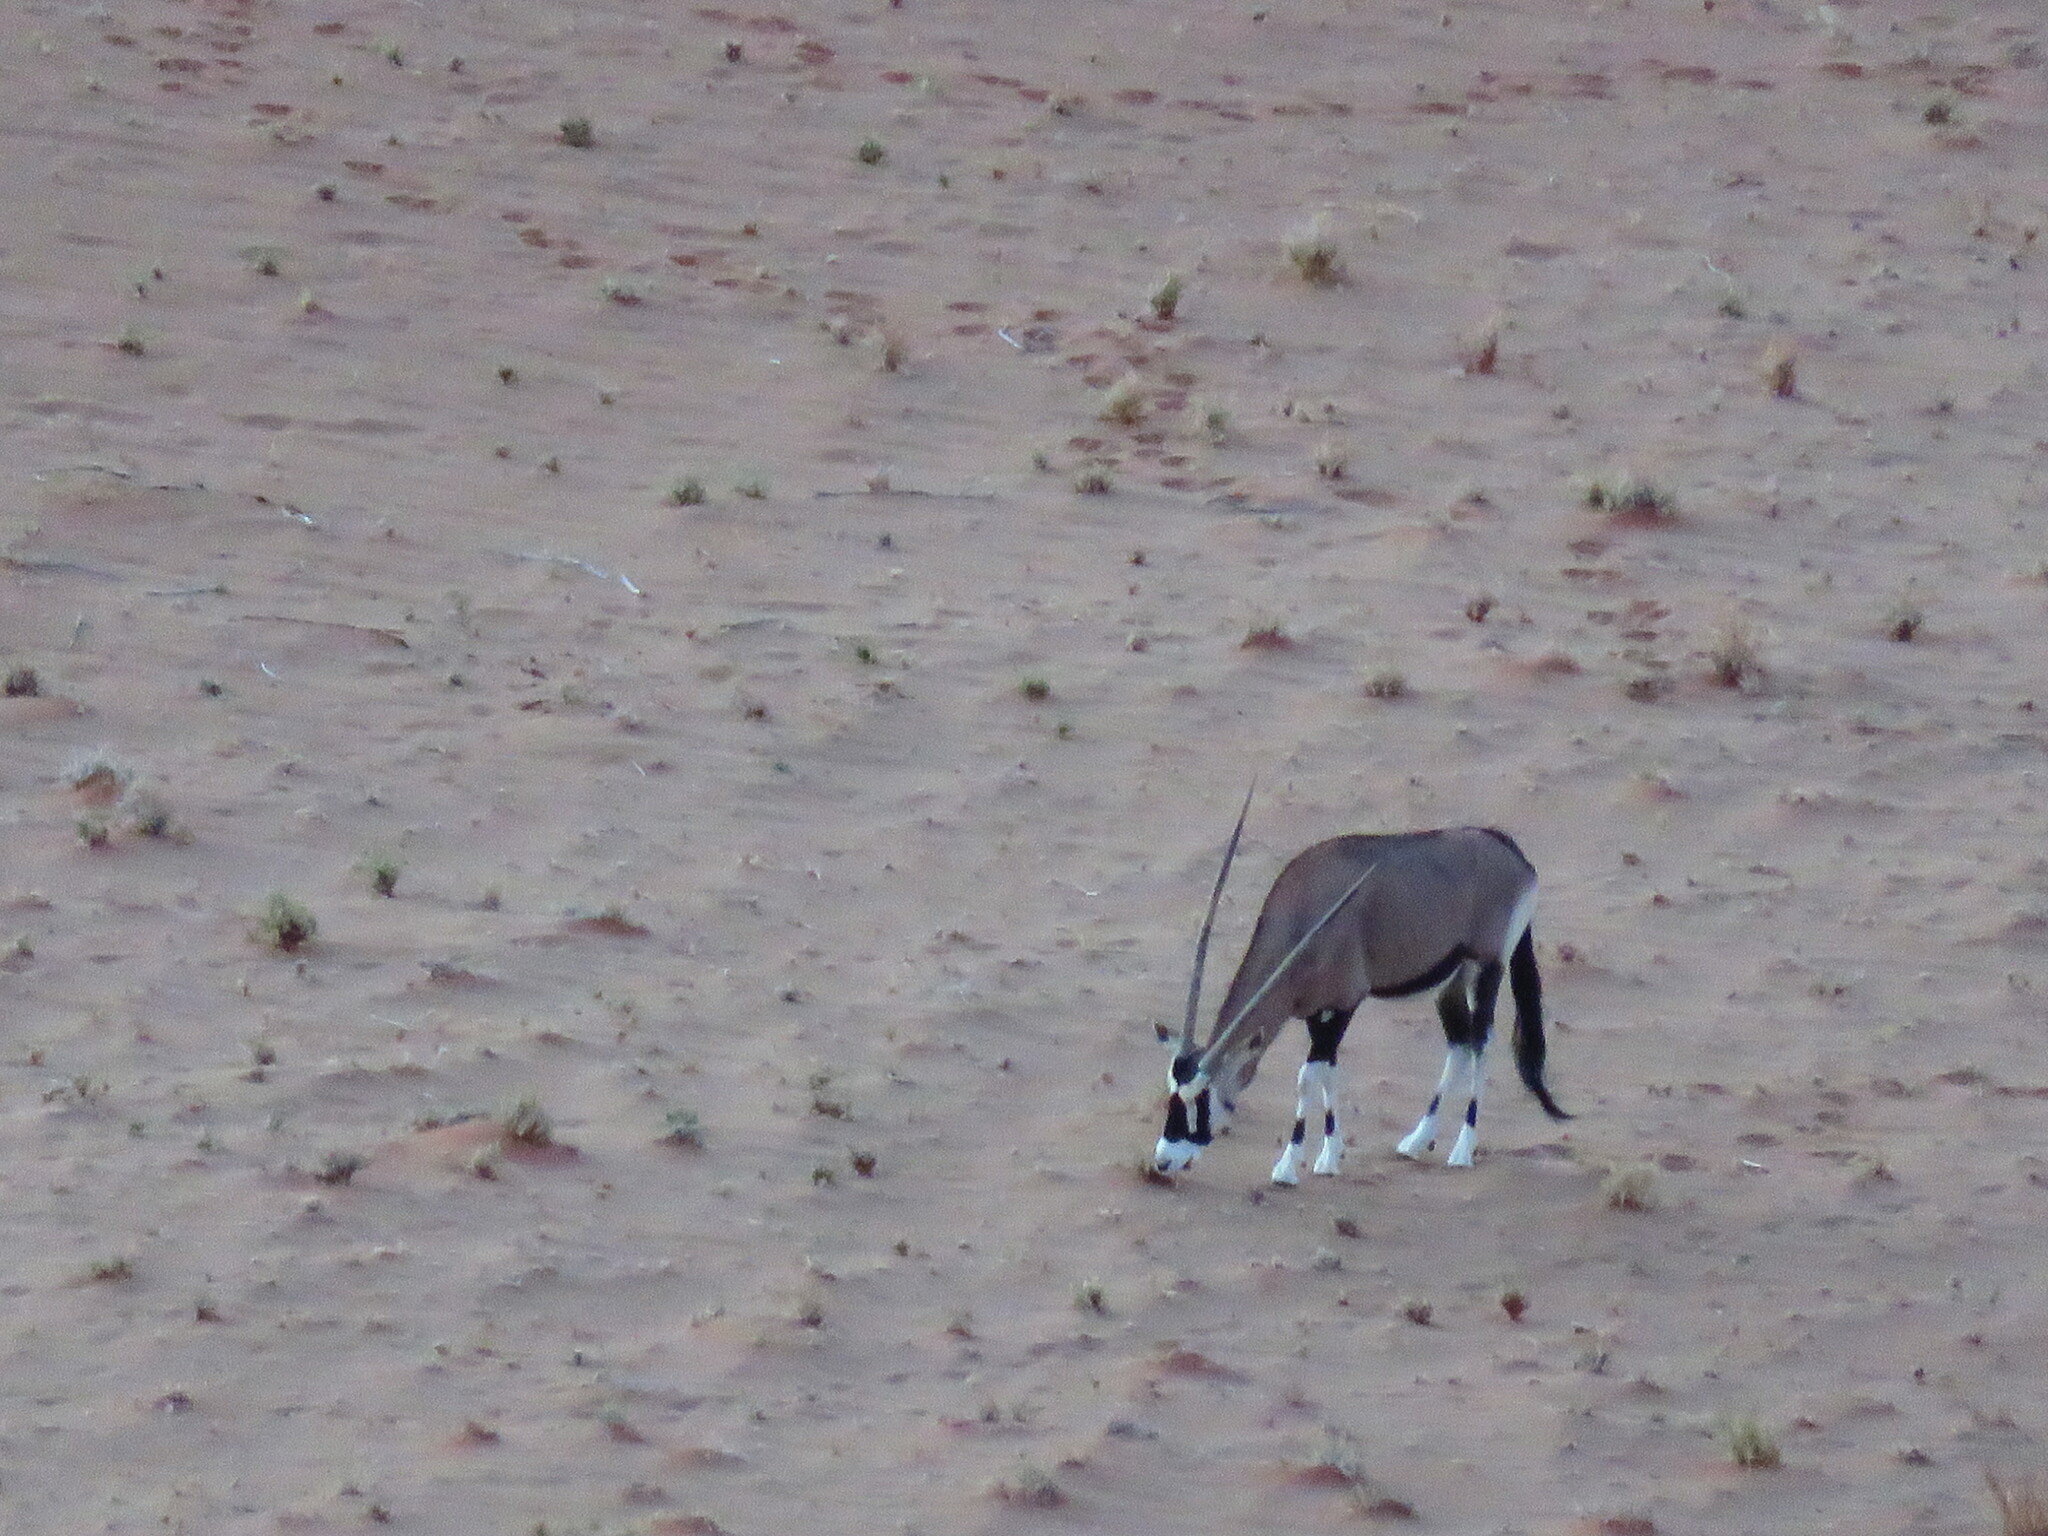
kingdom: Animalia
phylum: Chordata
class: Mammalia
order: Artiodactyla
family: Bovidae
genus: Oryx
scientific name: Oryx gazella
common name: Gemsbok
